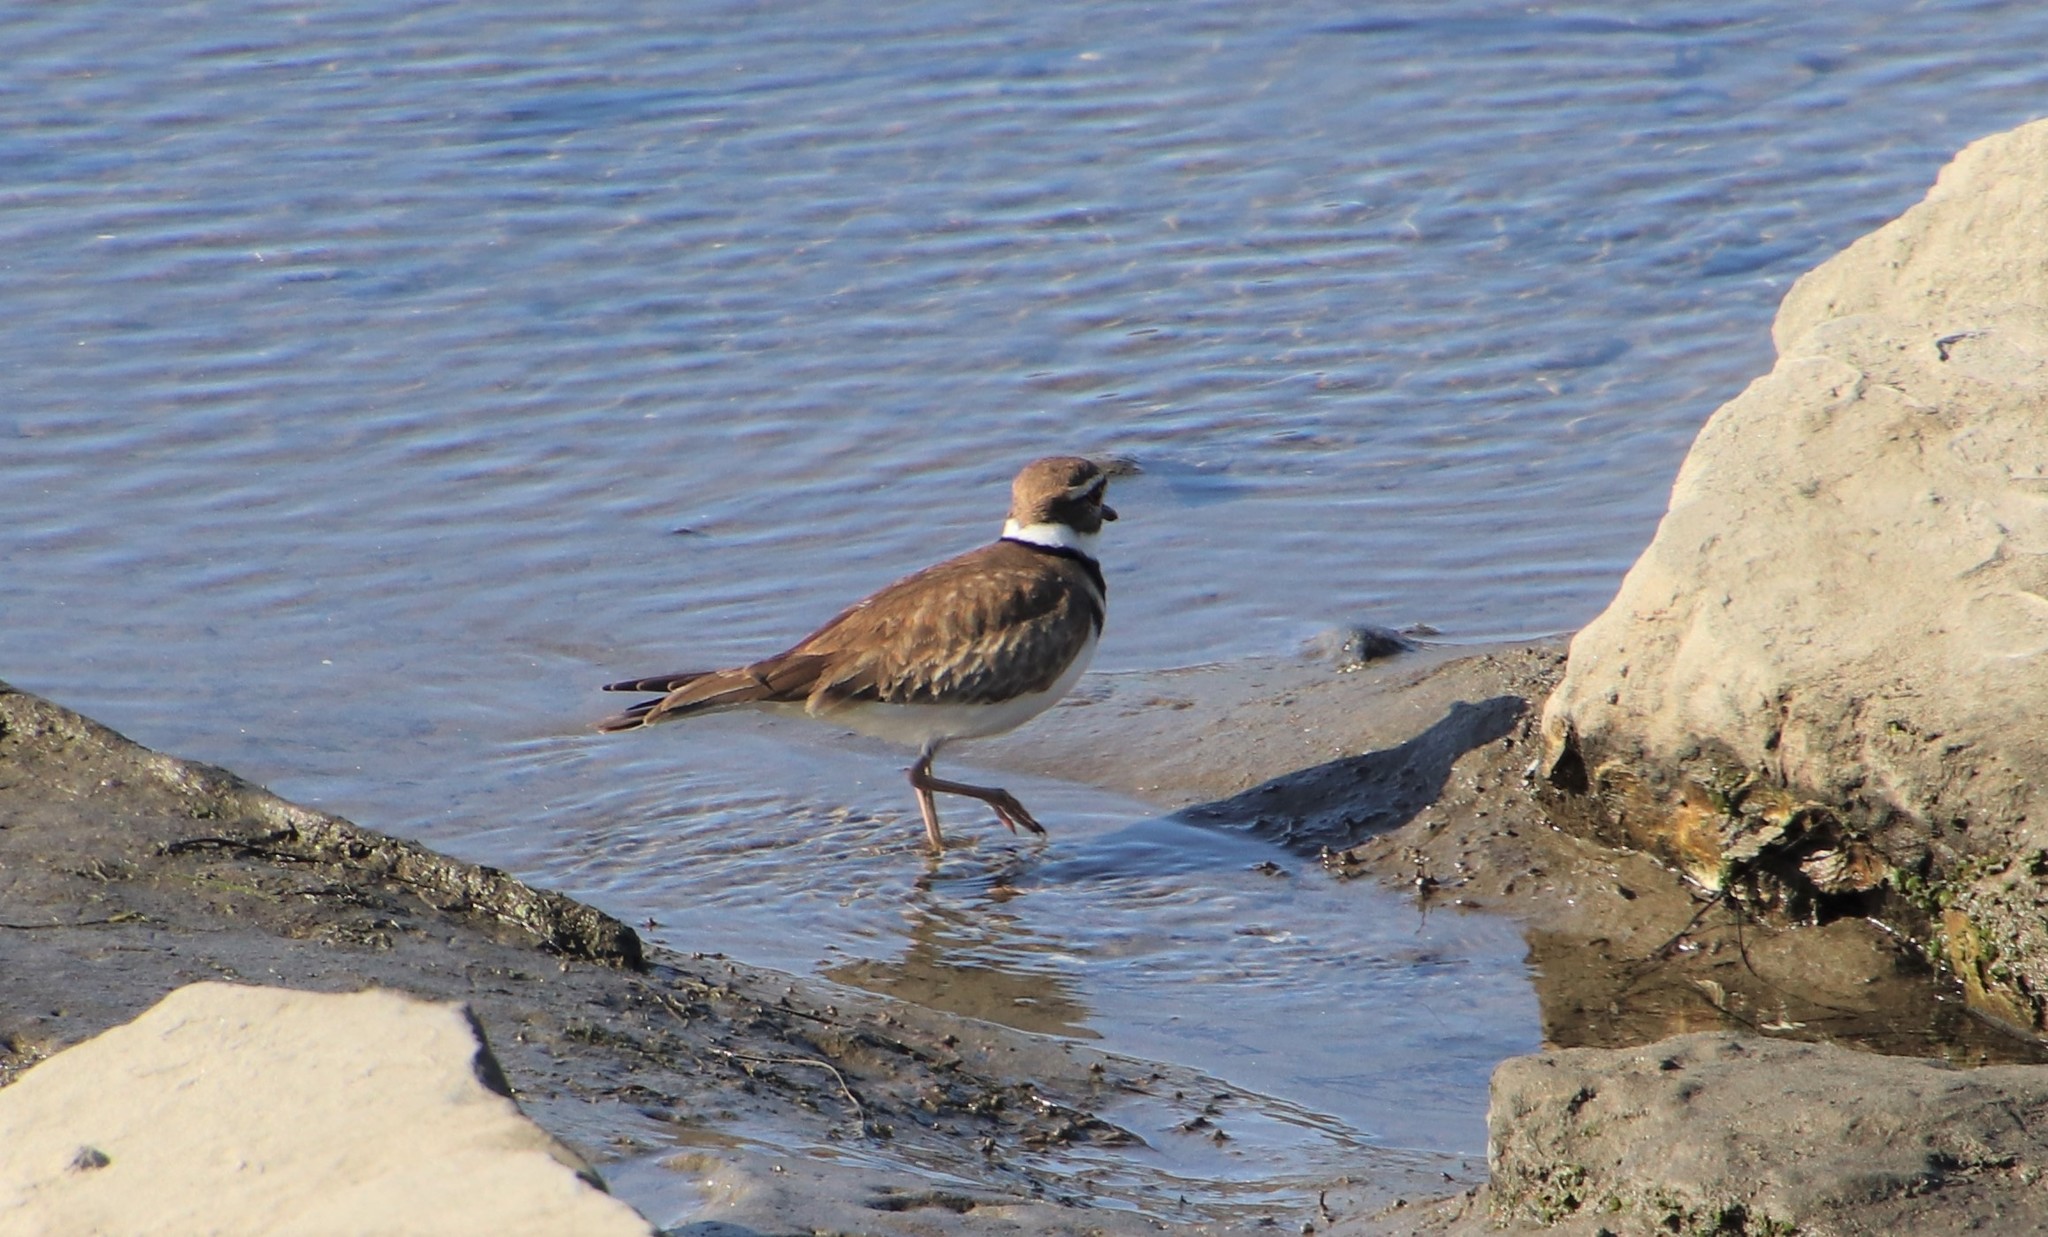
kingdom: Animalia
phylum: Chordata
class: Aves
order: Charadriiformes
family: Charadriidae
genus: Charadrius
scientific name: Charadrius vociferus
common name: Killdeer
